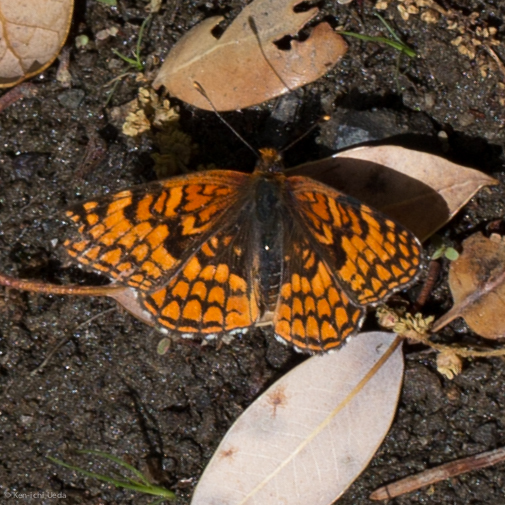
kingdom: Animalia
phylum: Arthropoda
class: Insecta
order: Lepidoptera
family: Nymphalidae
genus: Chlosyne
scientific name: Chlosyne palla
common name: Northern checkerspot
